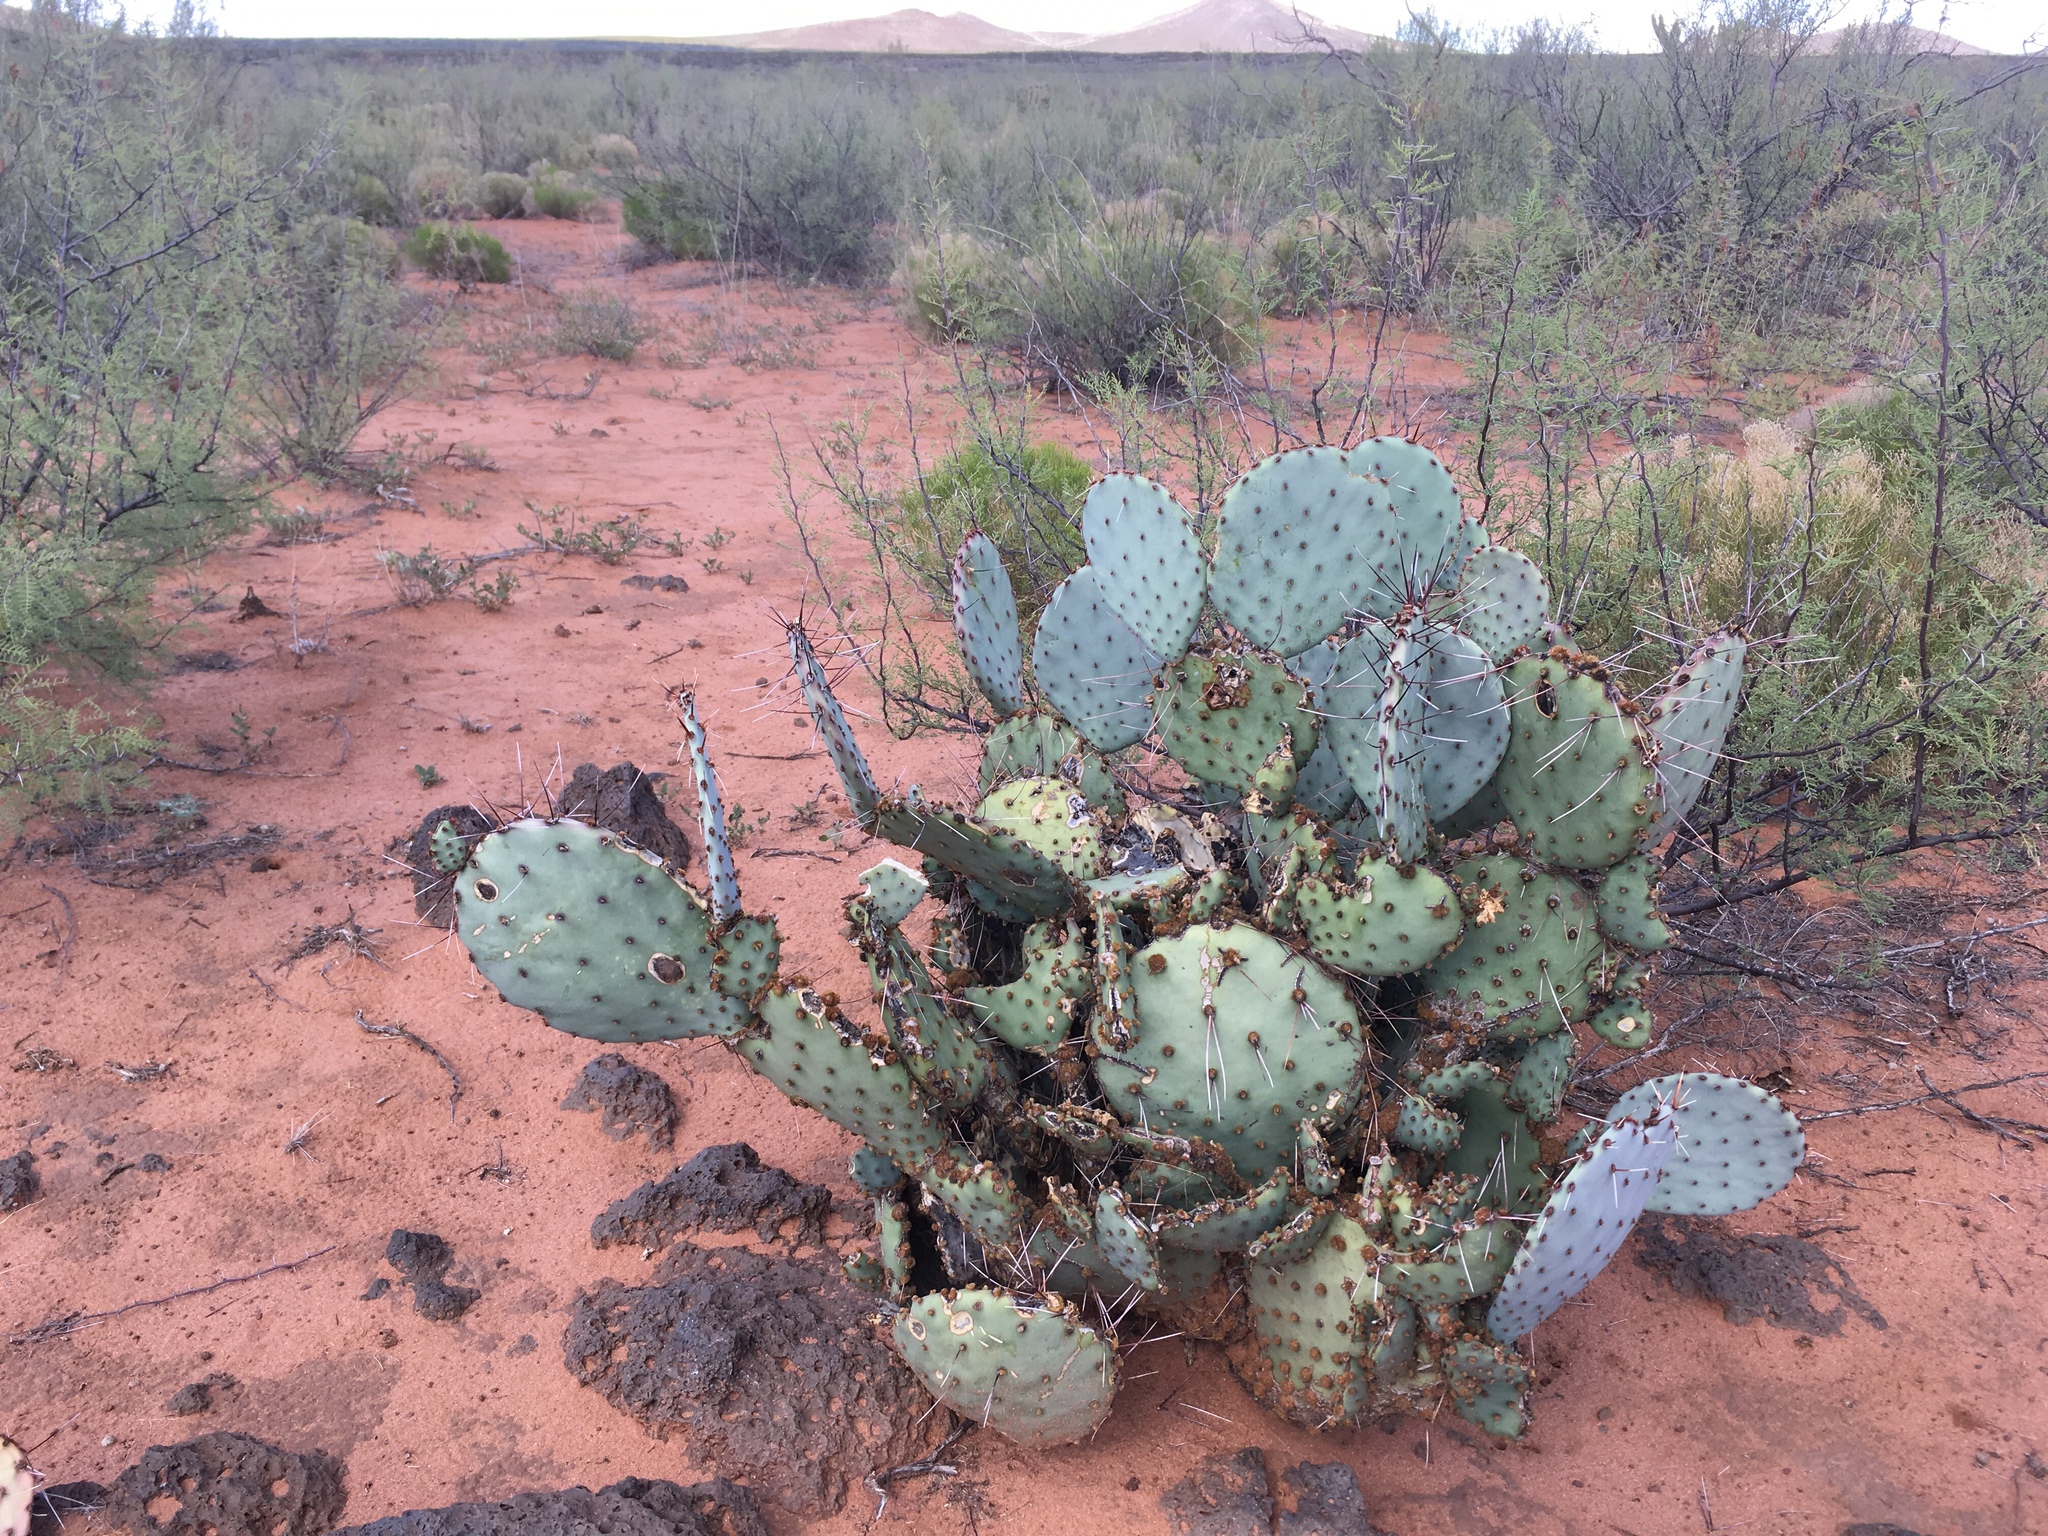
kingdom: Plantae
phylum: Tracheophyta
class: Magnoliopsida
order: Caryophyllales
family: Cactaceae
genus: Opuntia
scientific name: Opuntia macrocentra
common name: Purple prickly-pear
